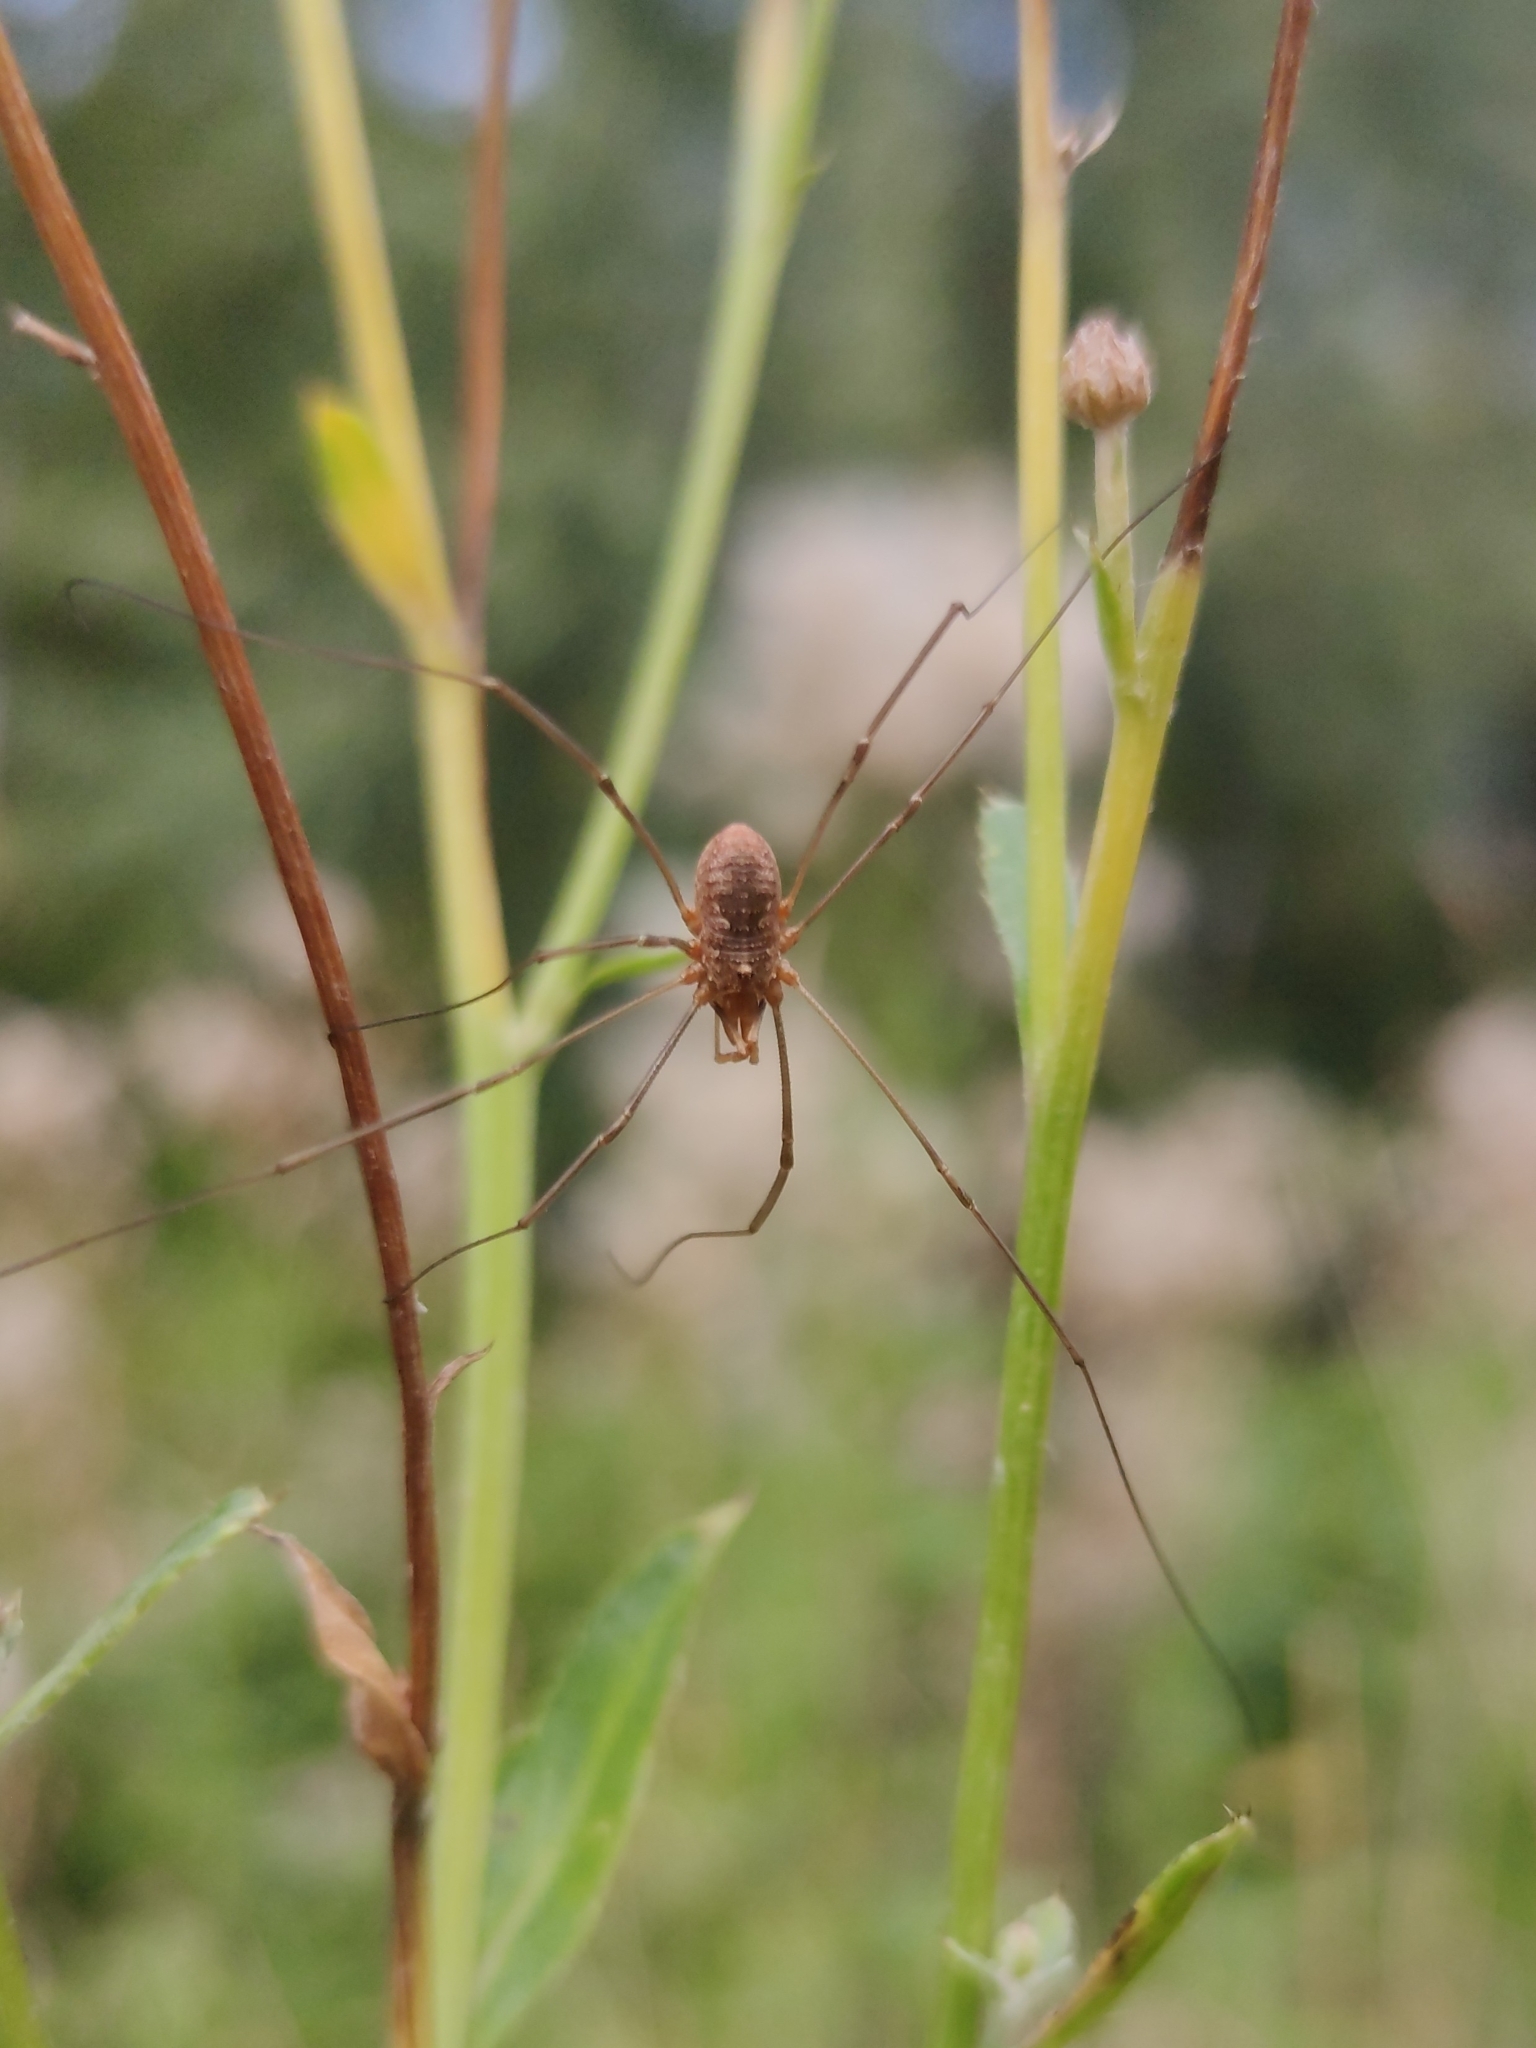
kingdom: Animalia
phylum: Arthropoda
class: Arachnida
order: Opiliones
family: Phalangiidae
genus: Phalangium
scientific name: Phalangium opilio
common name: Daddy longleg
